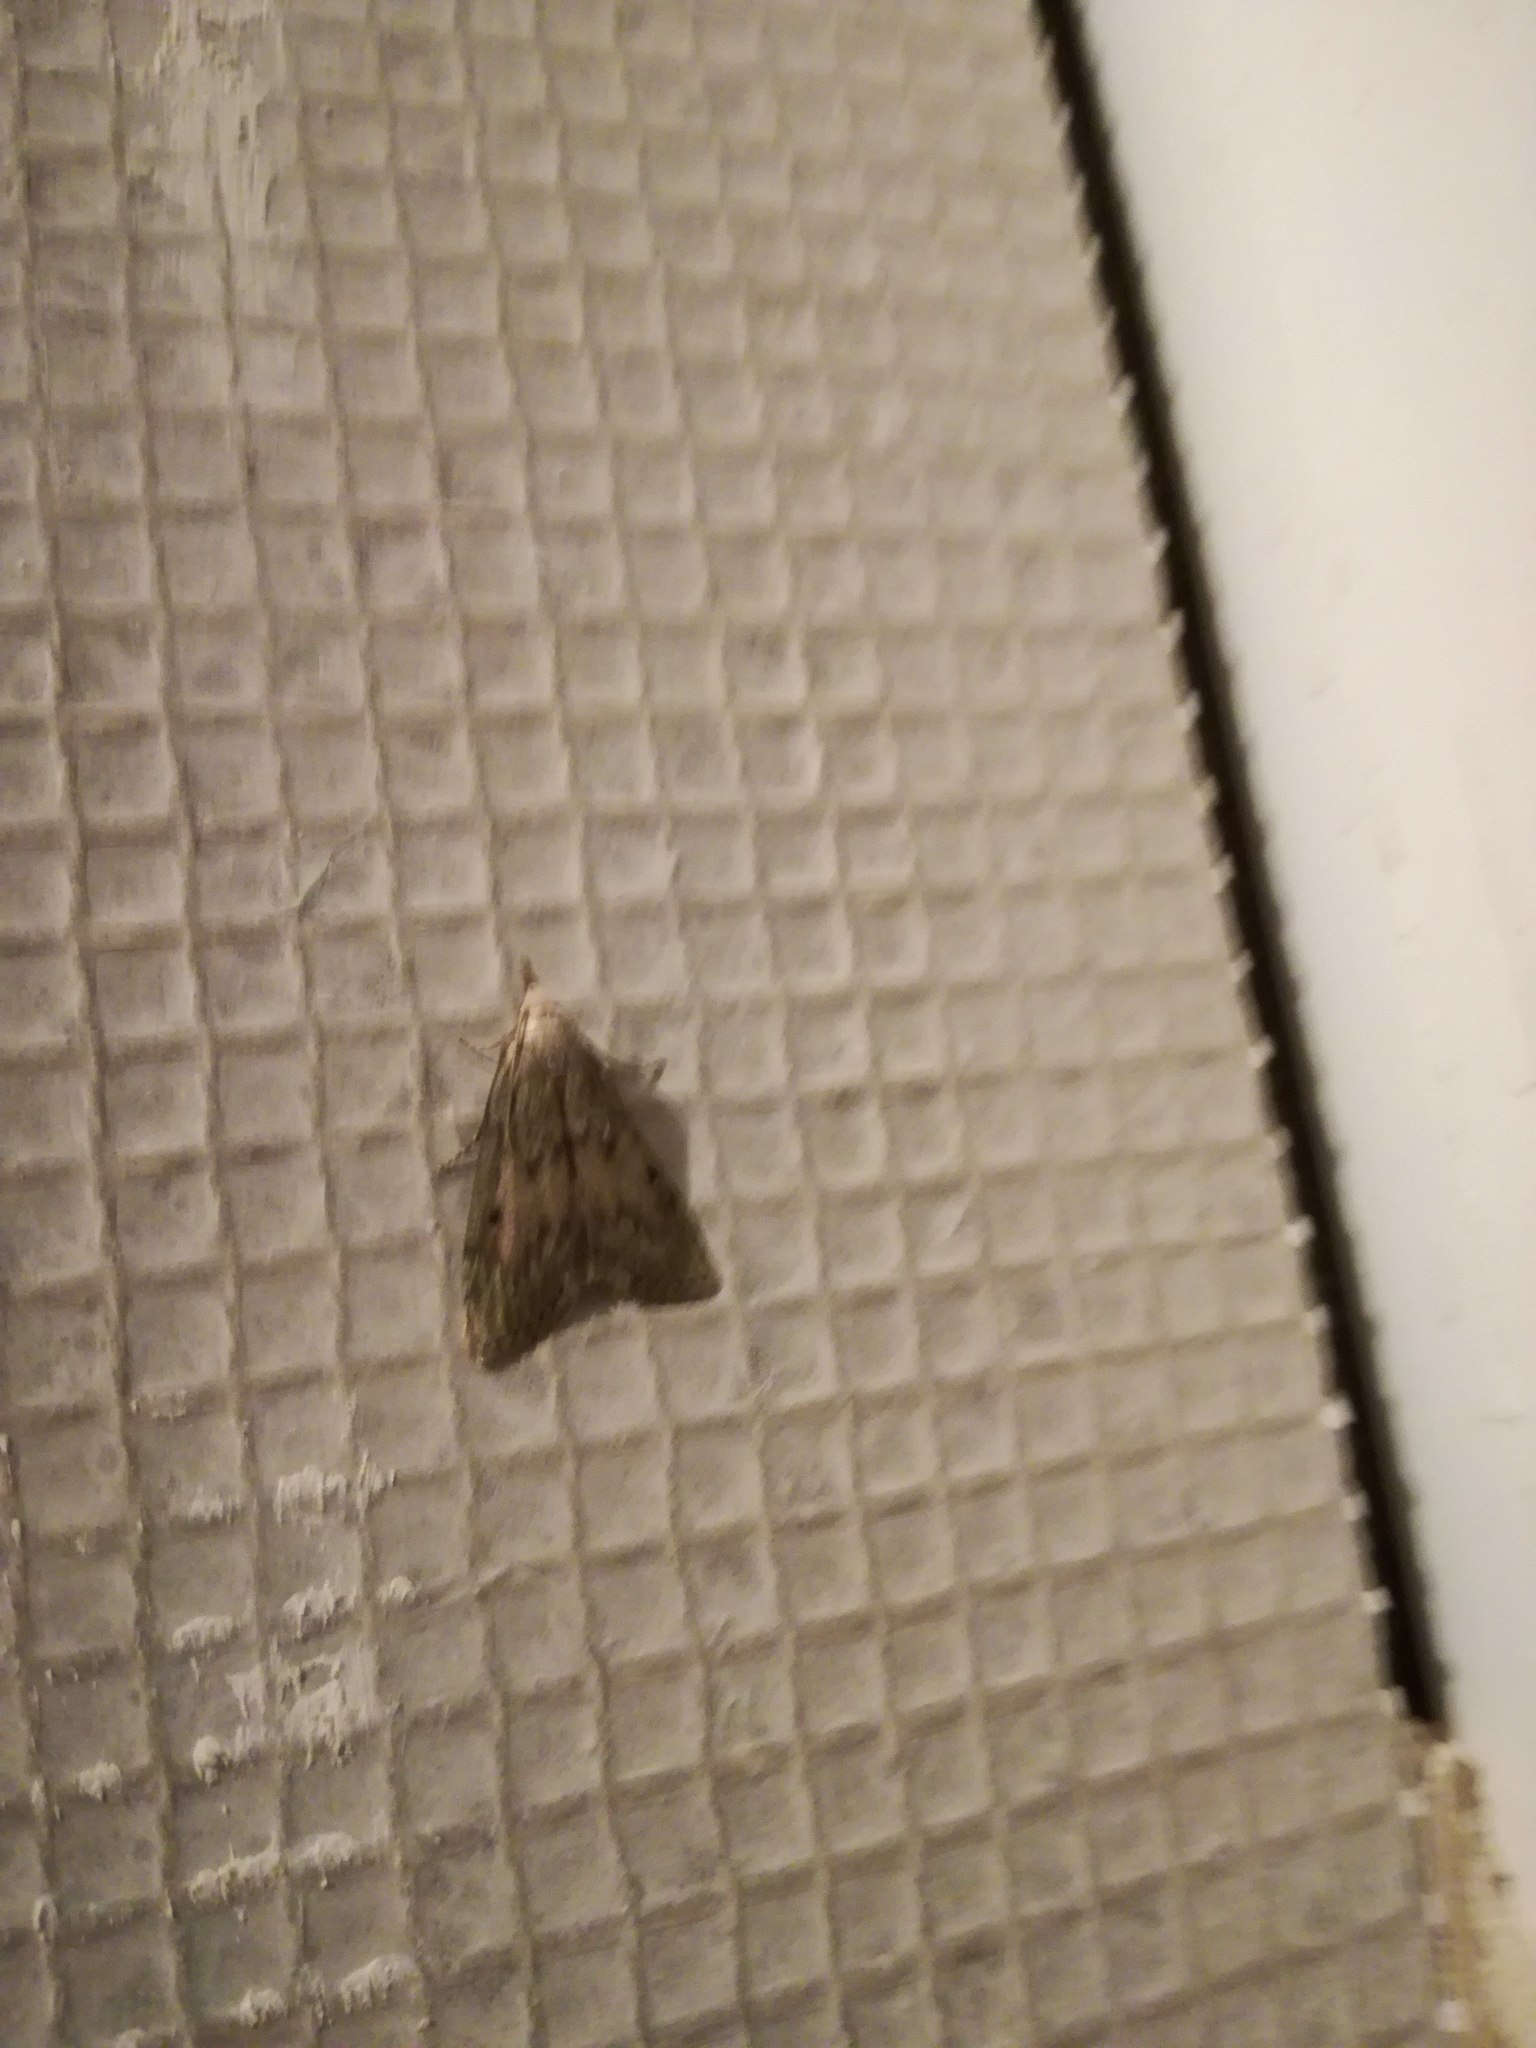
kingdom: Animalia
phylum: Arthropoda
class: Insecta
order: Lepidoptera
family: Pyralidae
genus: Aphomia
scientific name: Aphomia sociella
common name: Bee moth
